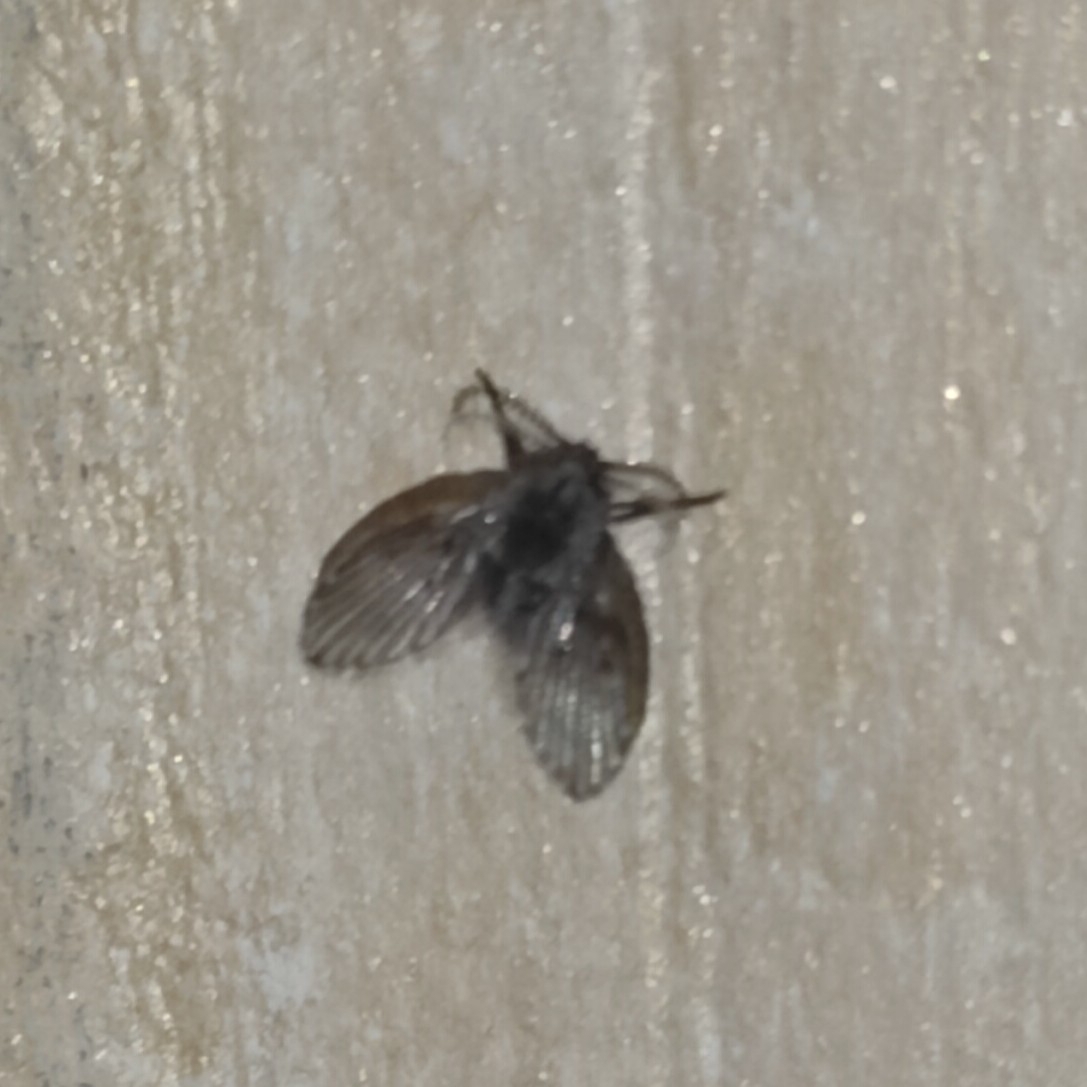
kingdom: Animalia
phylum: Arthropoda
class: Insecta
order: Diptera
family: Psychodidae
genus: Clogmia
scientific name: Clogmia albipunctatus
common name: White-spotted moth fly
